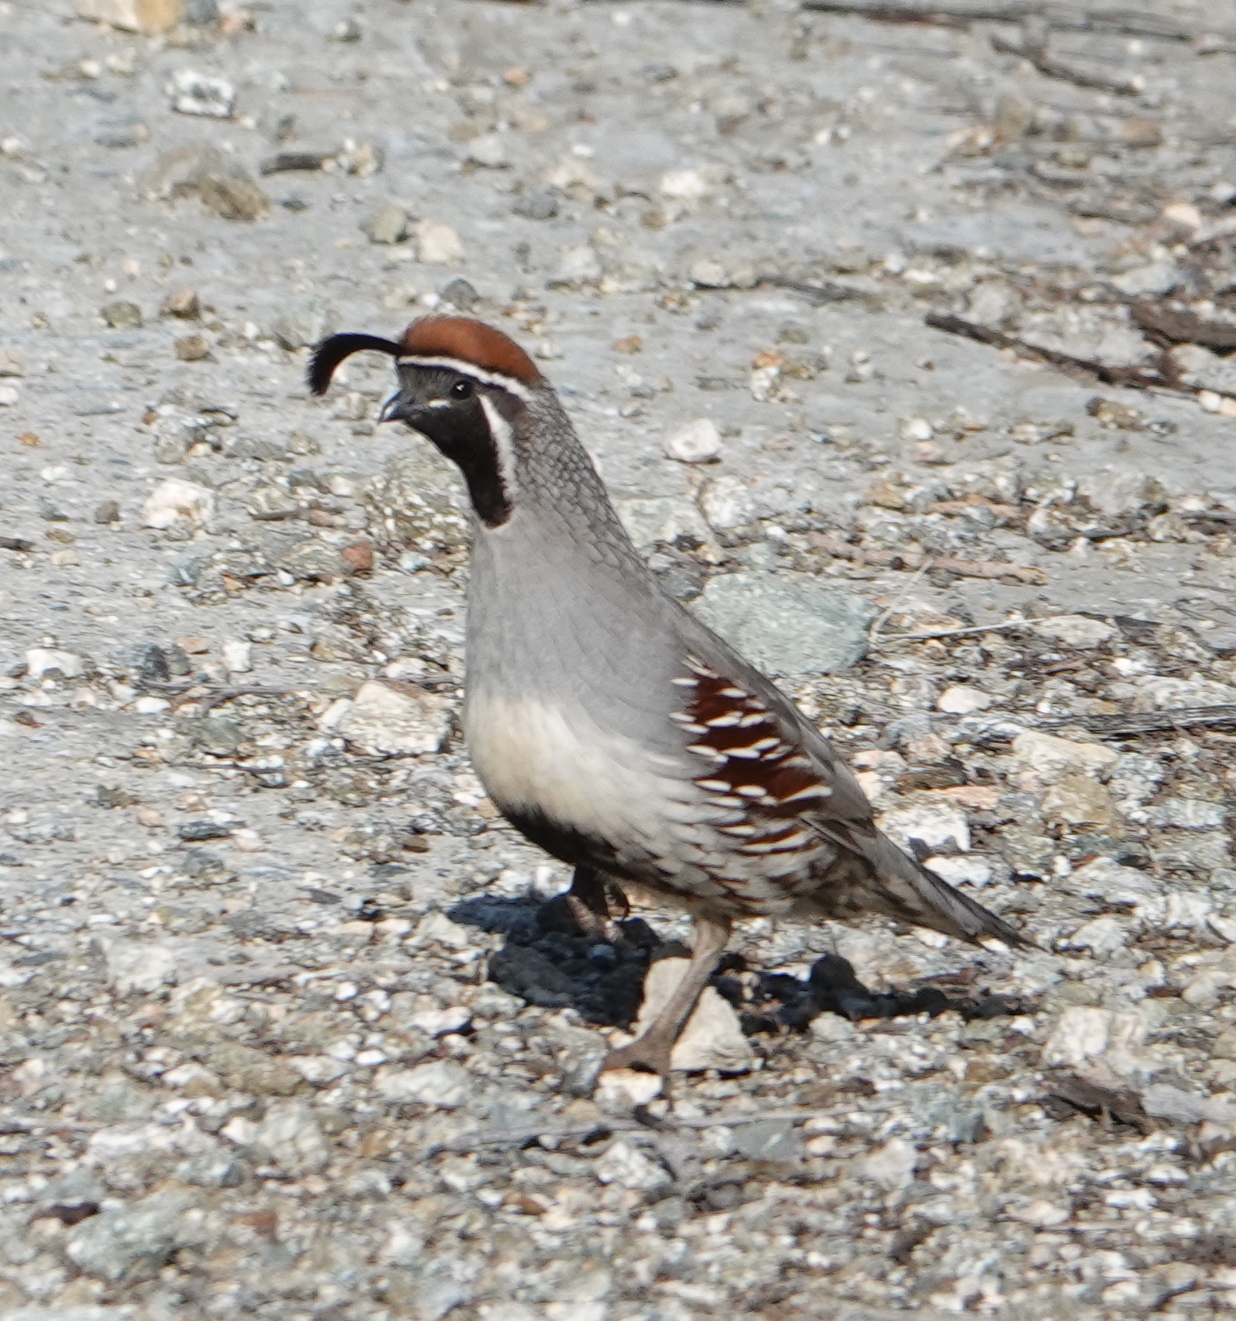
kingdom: Animalia
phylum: Chordata
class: Aves
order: Galliformes
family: Odontophoridae
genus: Callipepla
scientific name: Callipepla gambelii
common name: Gambel's quail
